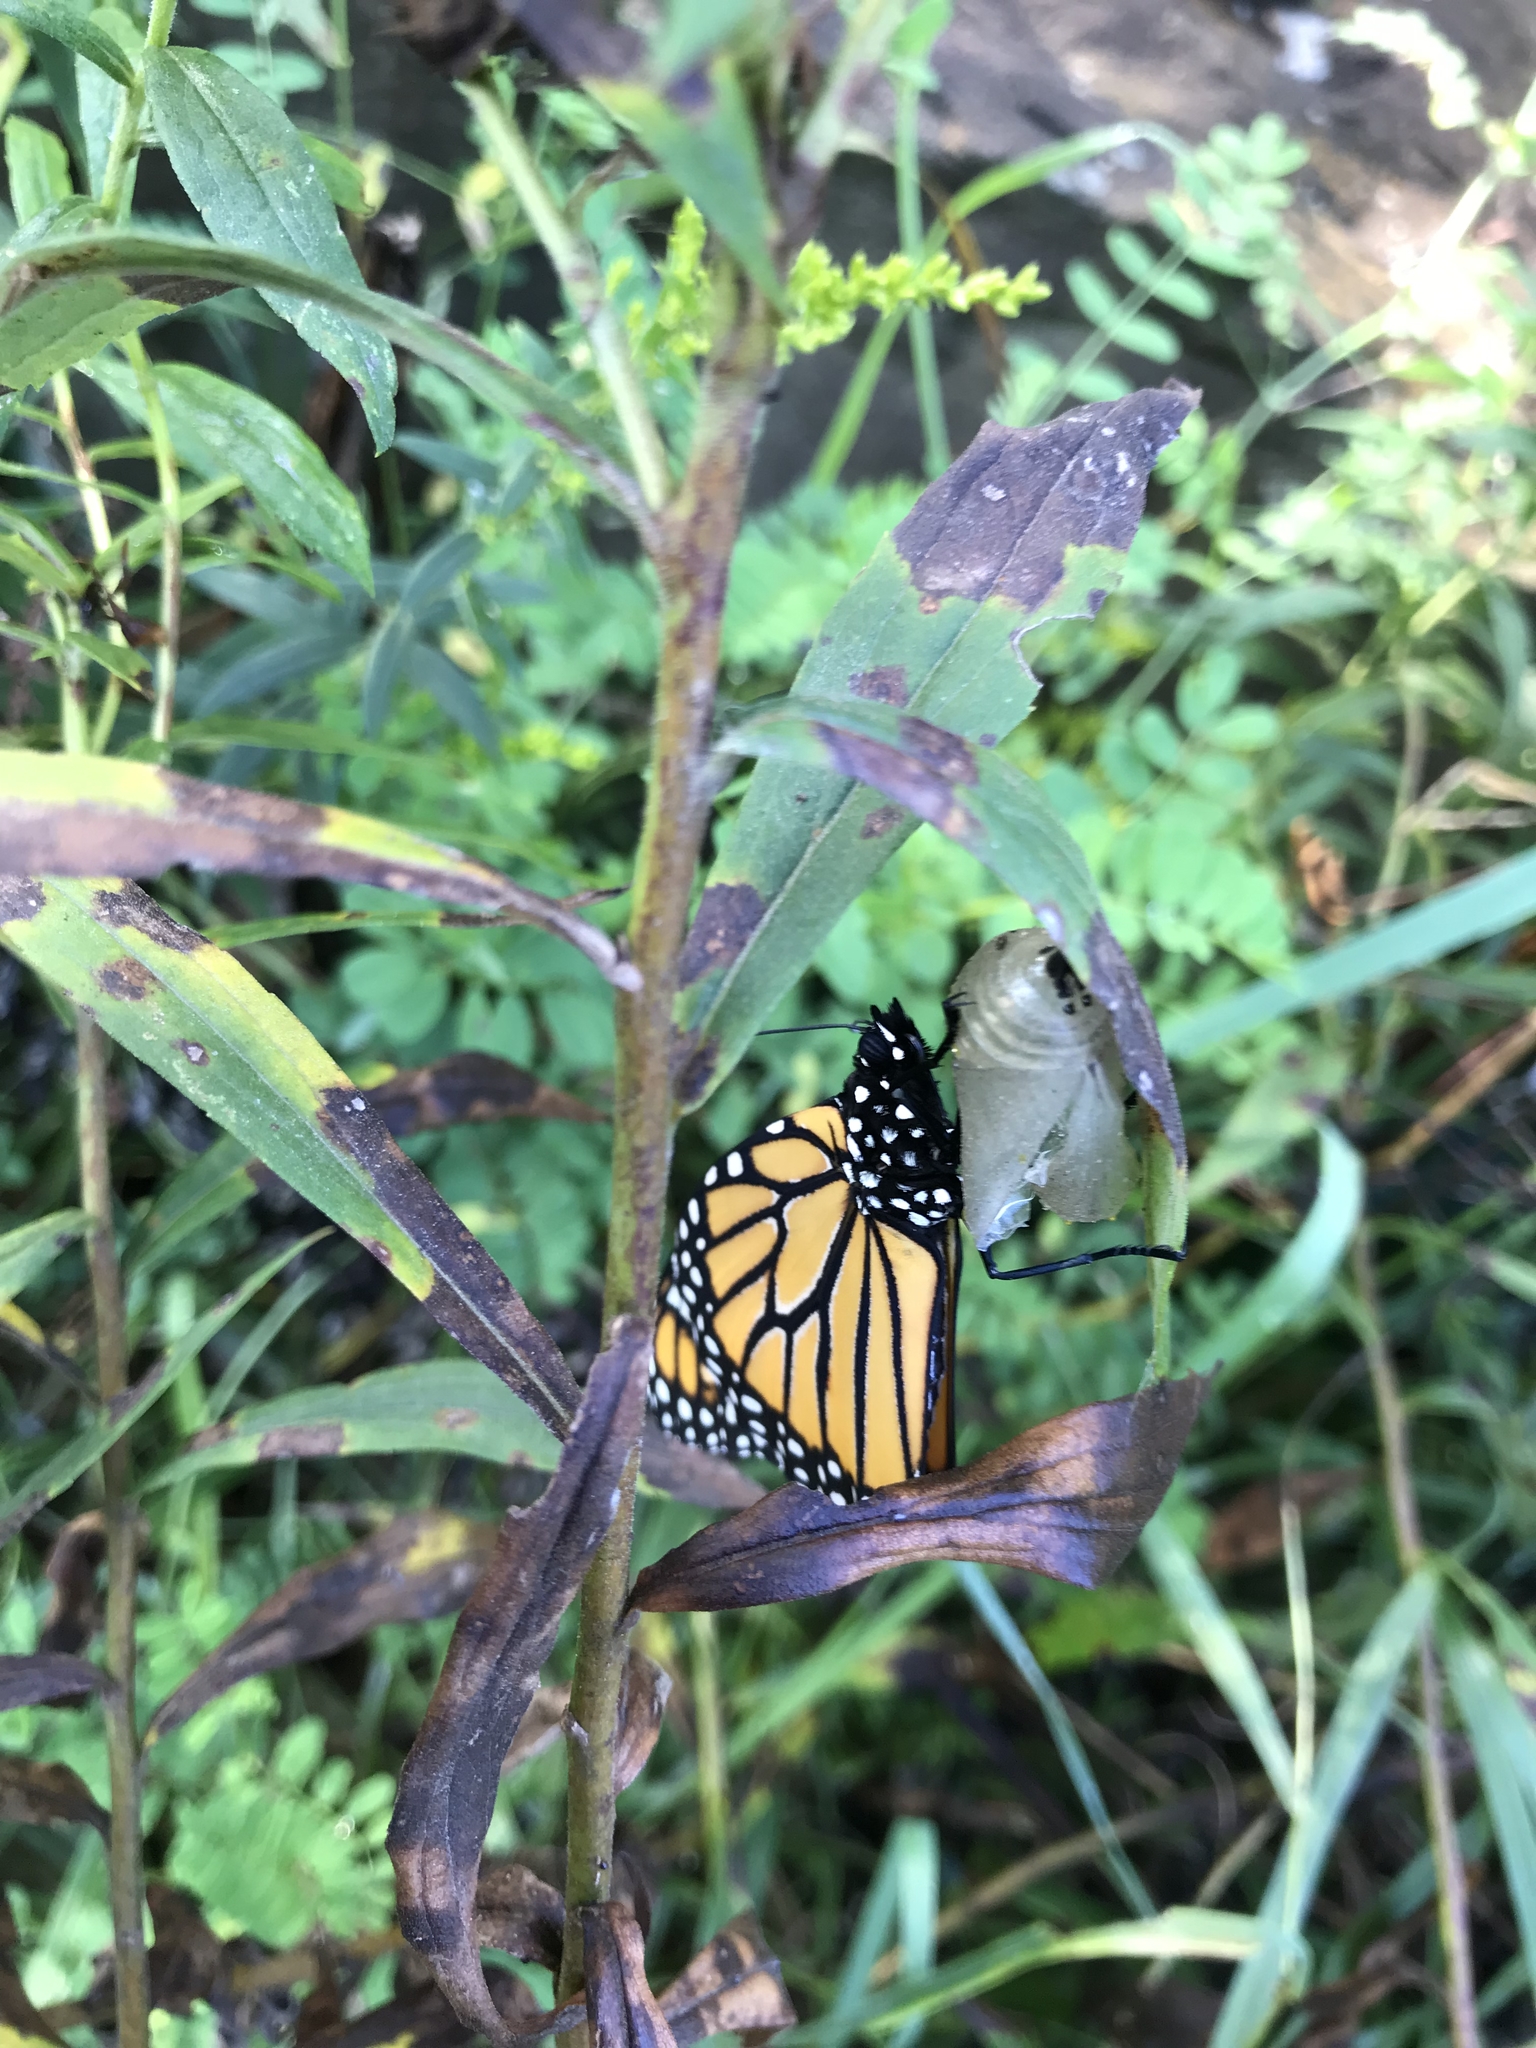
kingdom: Animalia
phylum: Arthropoda
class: Insecta
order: Lepidoptera
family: Nymphalidae
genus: Danaus
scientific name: Danaus plexippus
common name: Monarch
